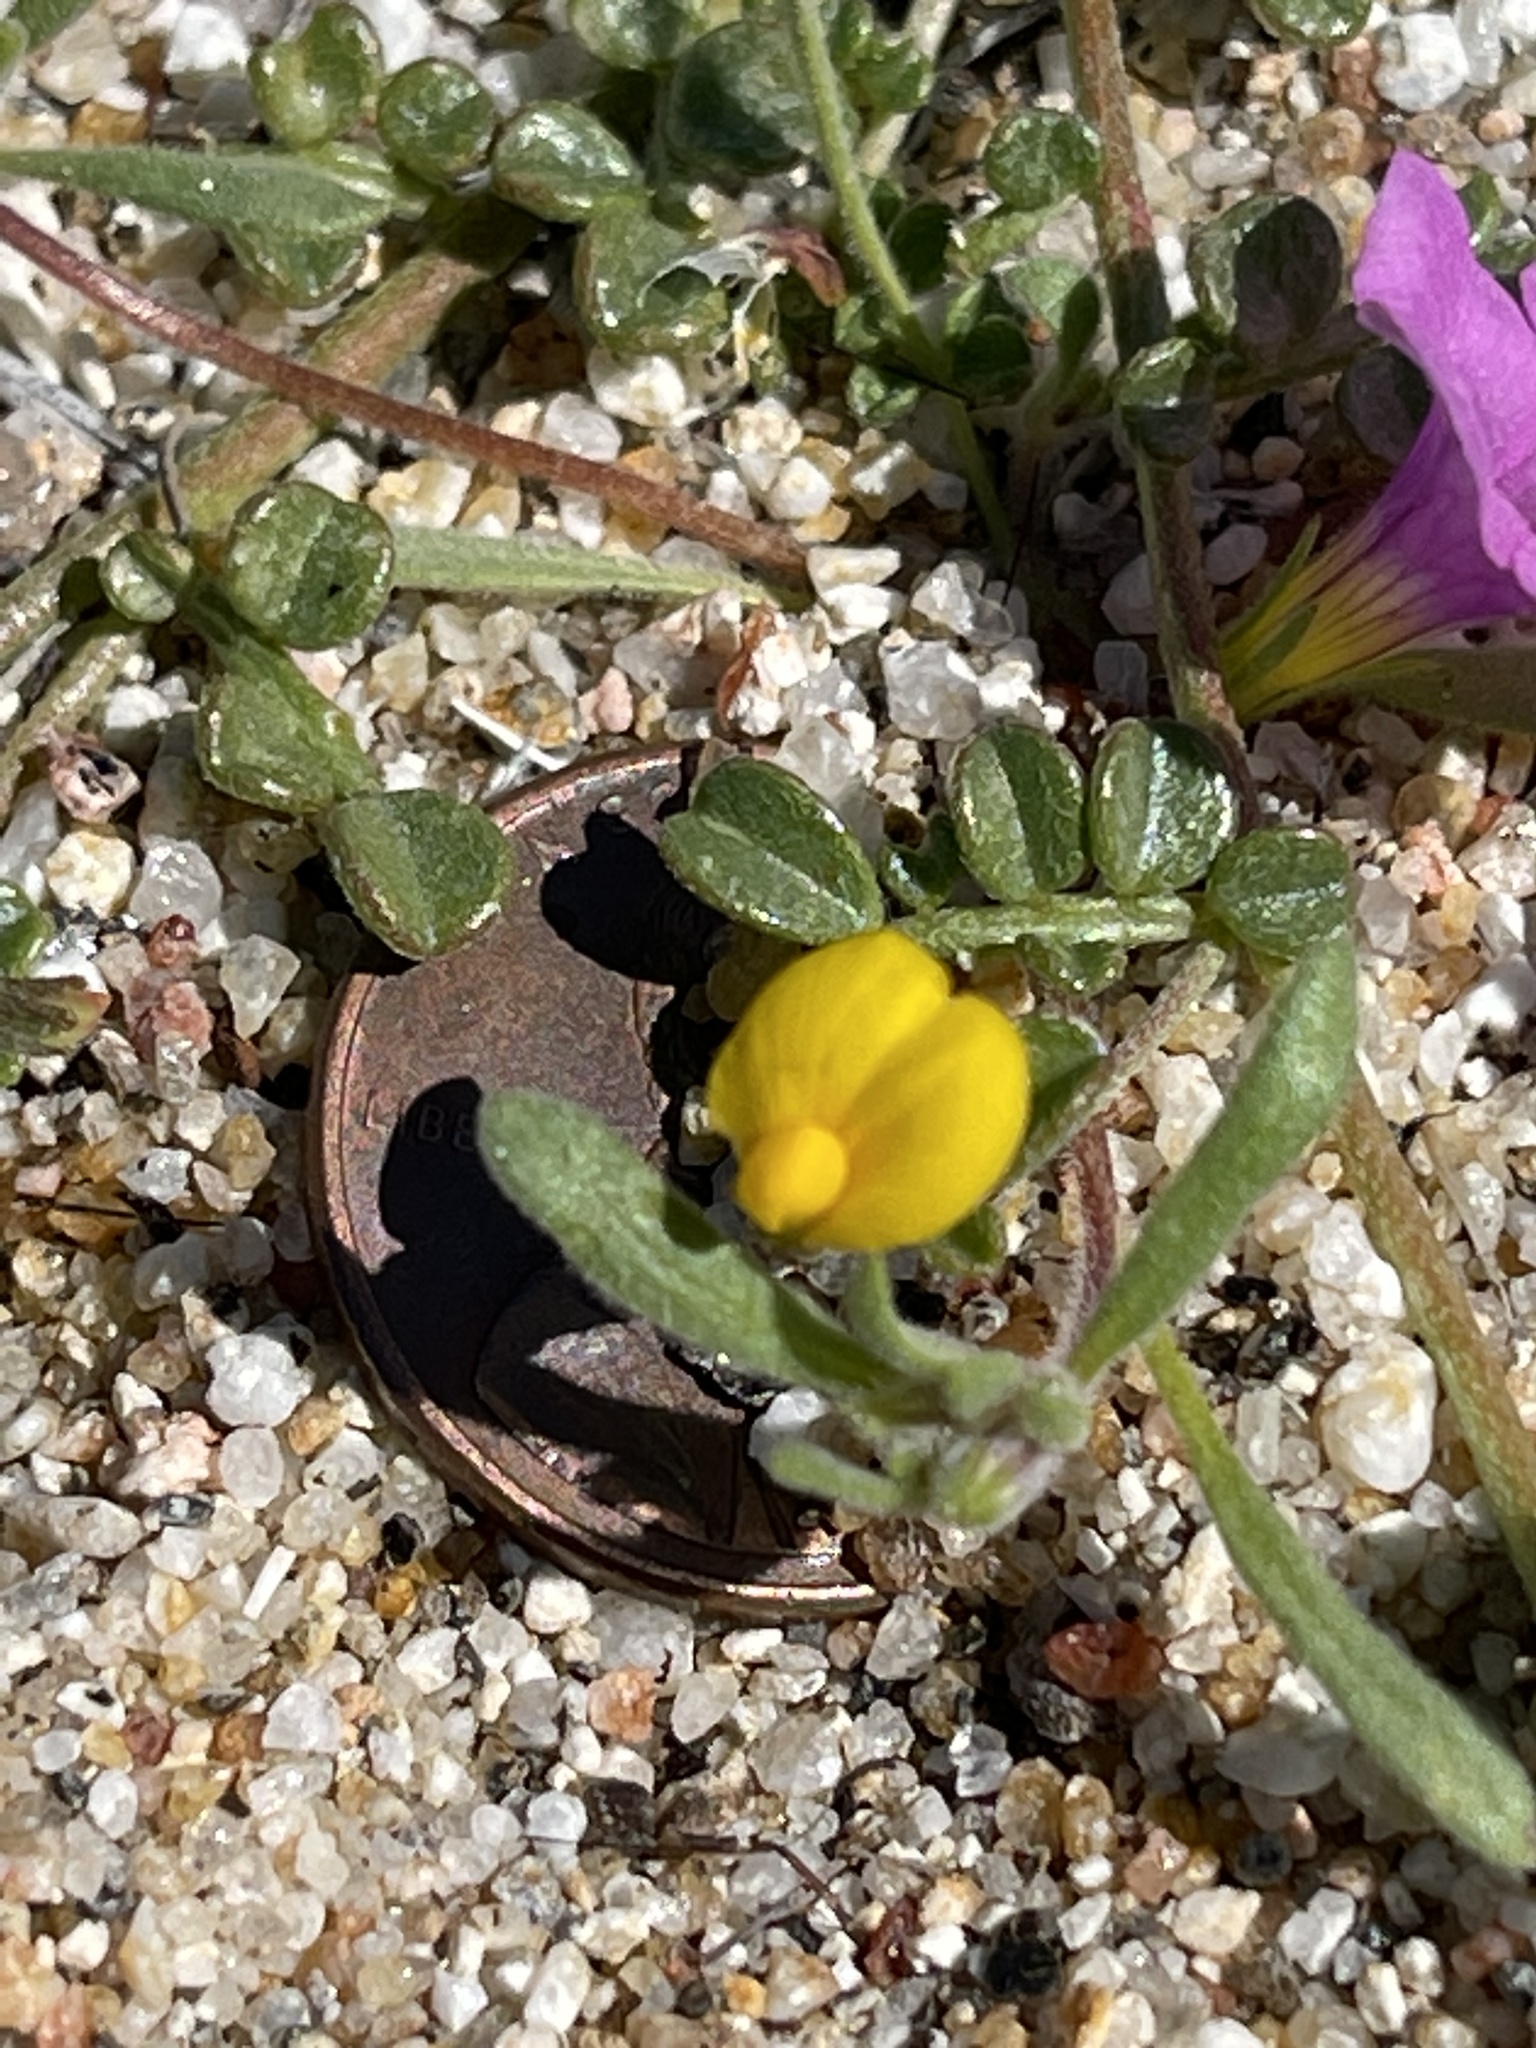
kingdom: Plantae
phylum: Tracheophyta
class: Magnoliopsida
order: Fabales
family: Fabaceae
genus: Acmispon
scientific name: Acmispon strigosus
